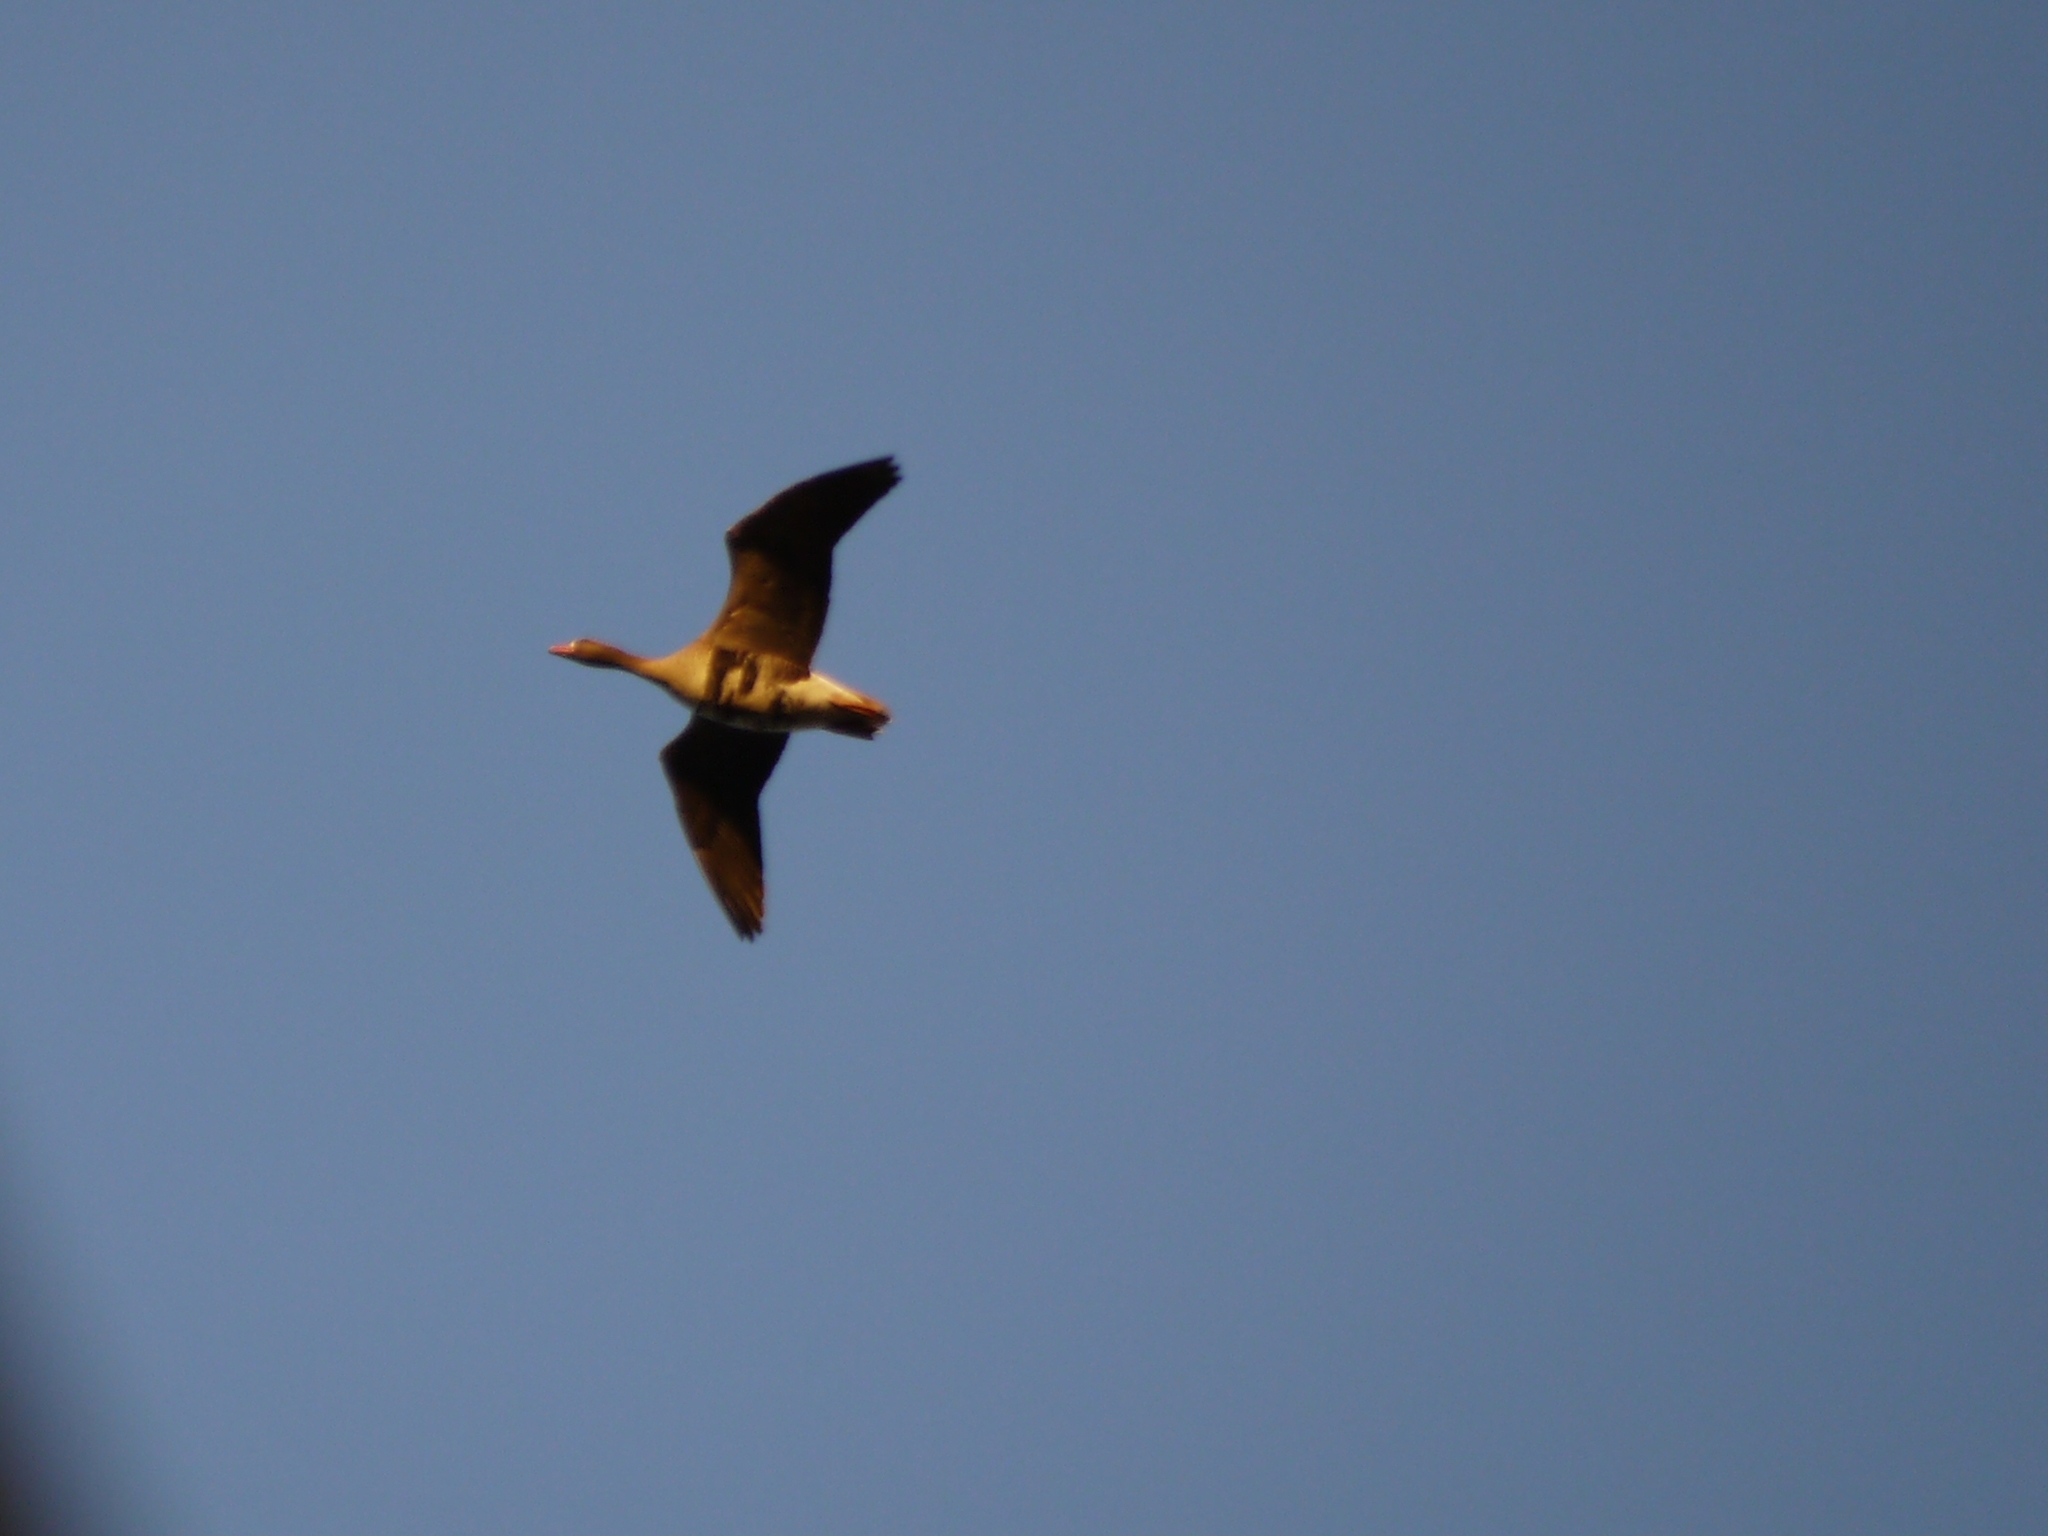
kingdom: Animalia
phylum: Chordata
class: Aves
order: Anseriformes
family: Anatidae
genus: Anser
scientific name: Anser albifrons
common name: Greater white-fronted goose
